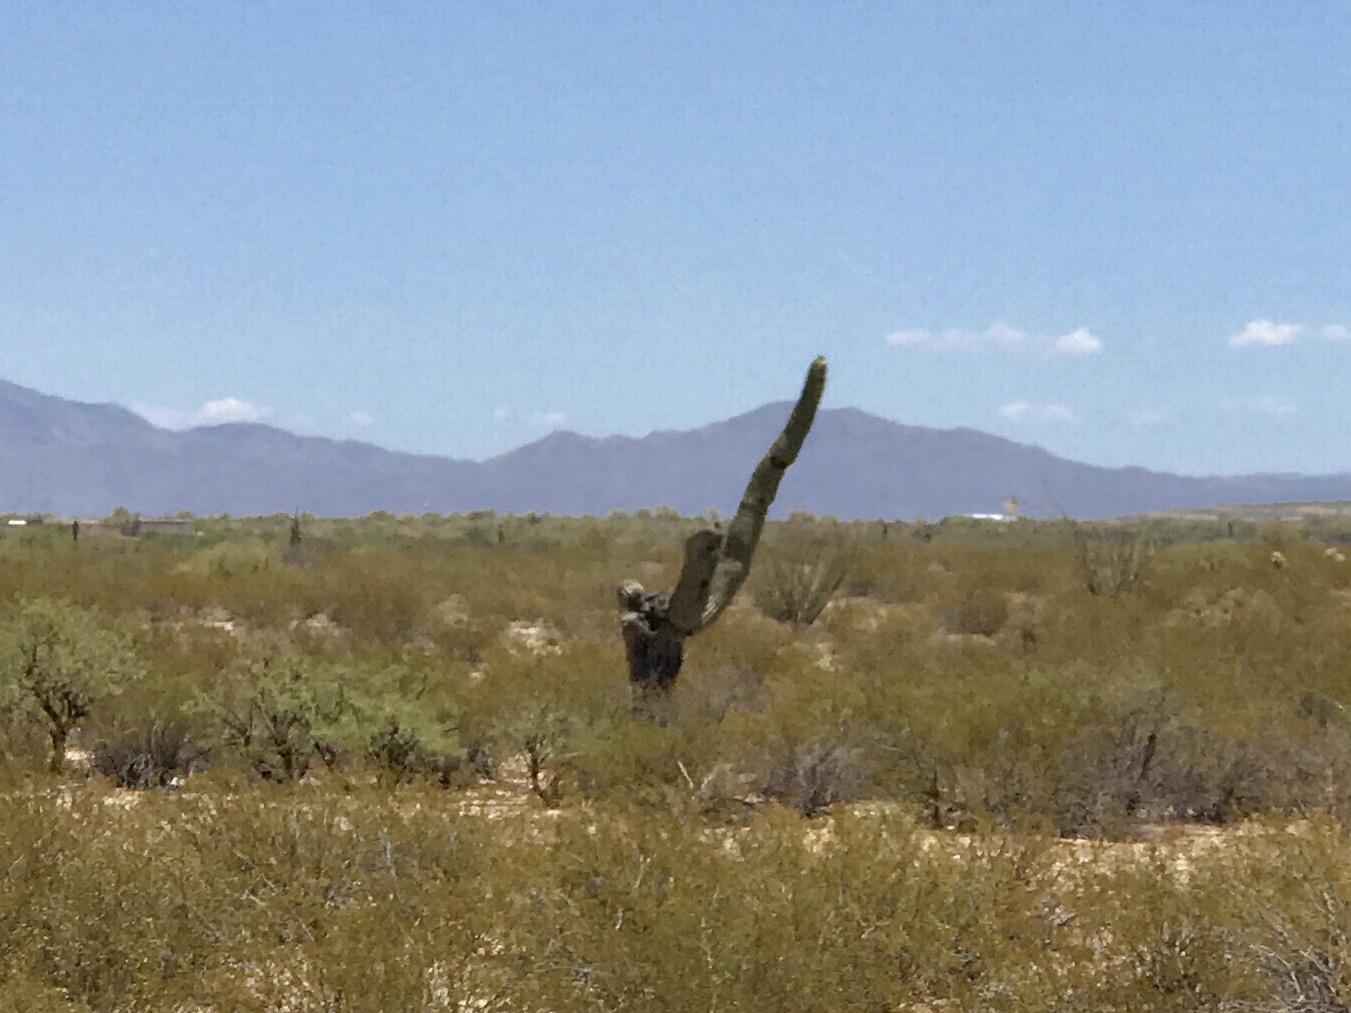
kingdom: Plantae
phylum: Tracheophyta
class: Magnoliopsida
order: Caryophyllales
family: Cactaceae
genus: Carnegiea
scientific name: Carnegiea gigantea
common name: Saguaro
